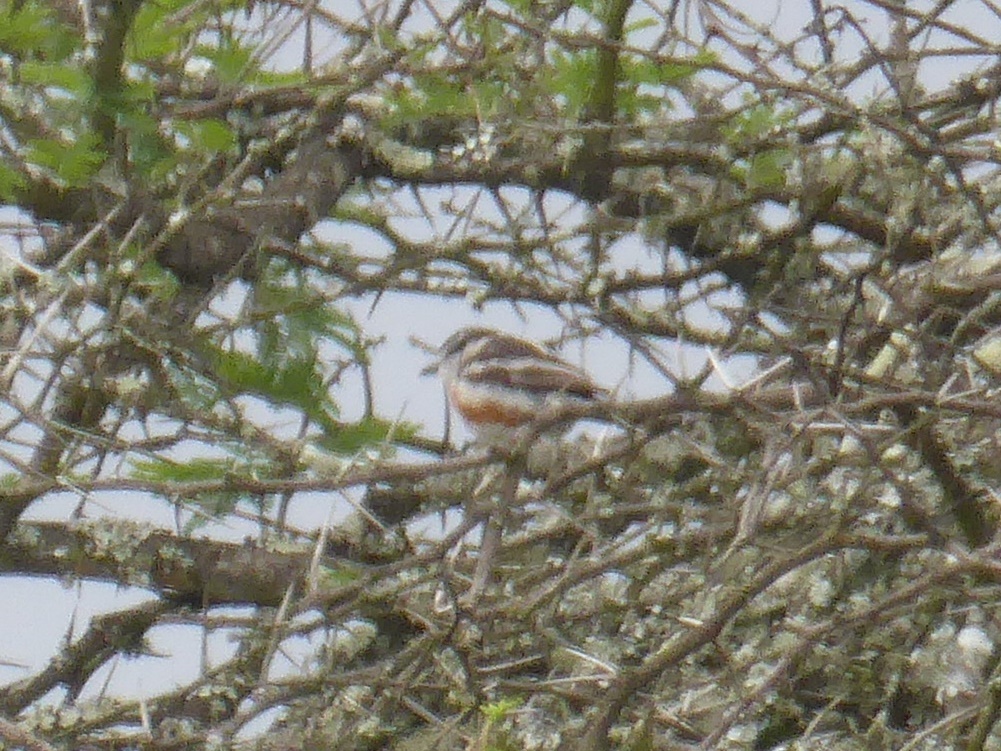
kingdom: Animalia
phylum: Chordata
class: Aves
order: Passeriformes
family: Malaconotidae
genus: Nilaus
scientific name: Nilaus afer
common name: Brubru
